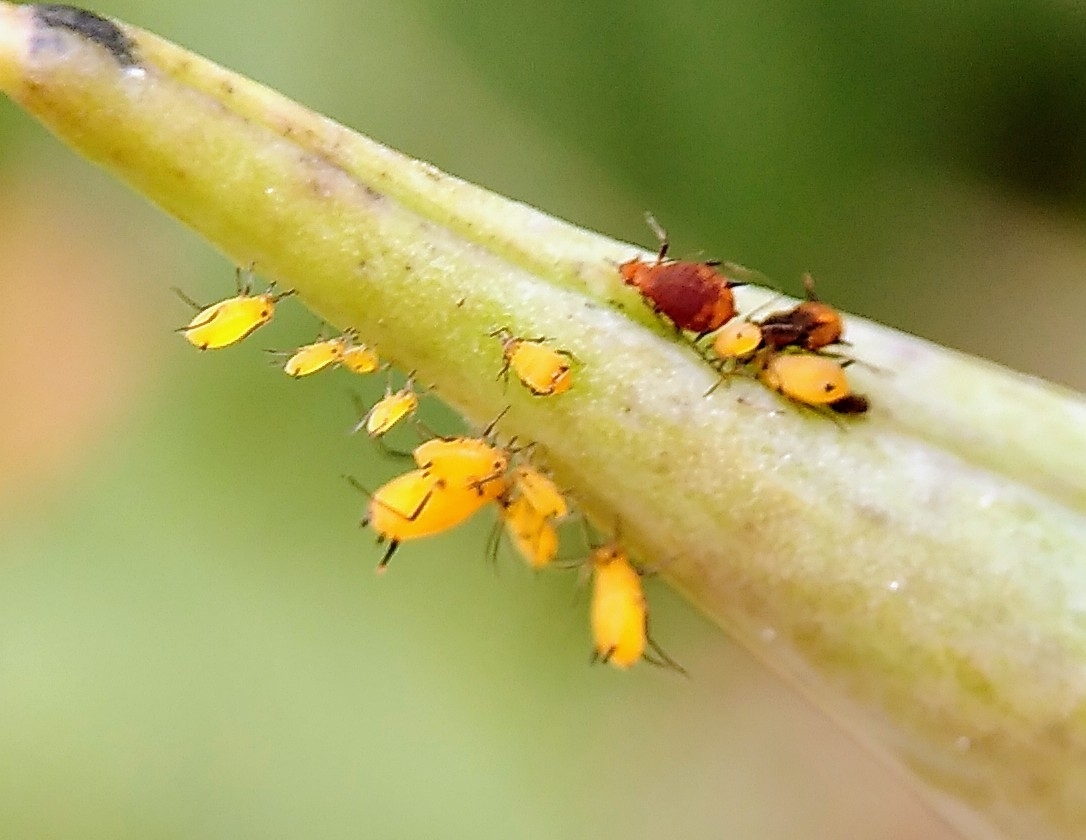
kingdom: Animalia
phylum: Arthropoda
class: Insecta
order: Hemiptera
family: Aphididae
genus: Aphis
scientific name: Aphis nerii
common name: Oleander aphid
